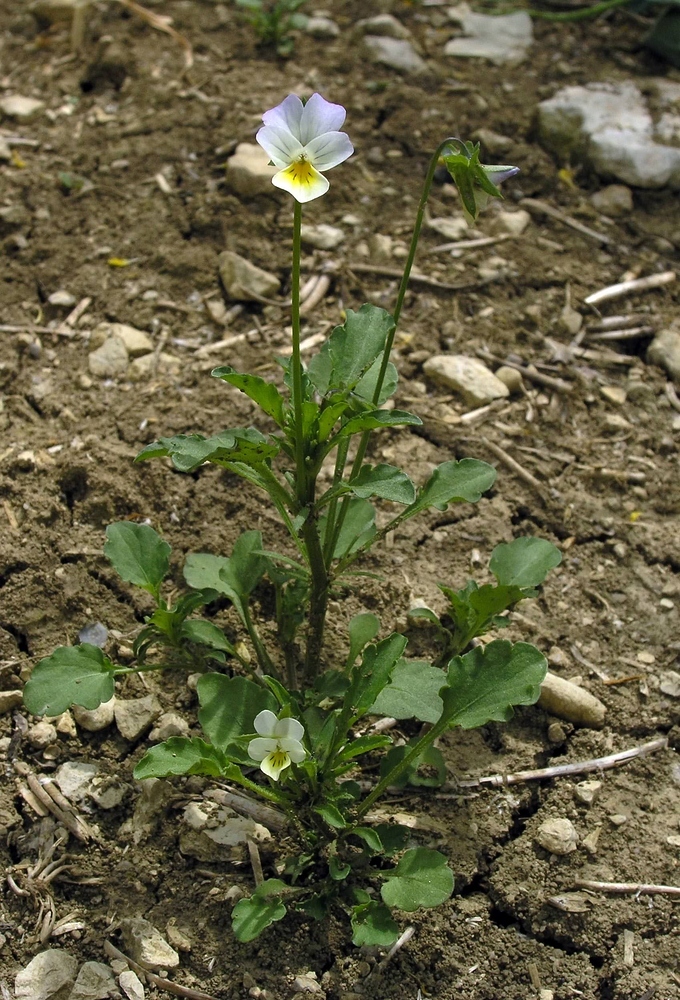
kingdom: Plantae
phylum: Tracheophyta
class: Magnoliopsida
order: Malpighiales
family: Violaceae
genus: Viola
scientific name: Viola arvensis
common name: Field pansy
